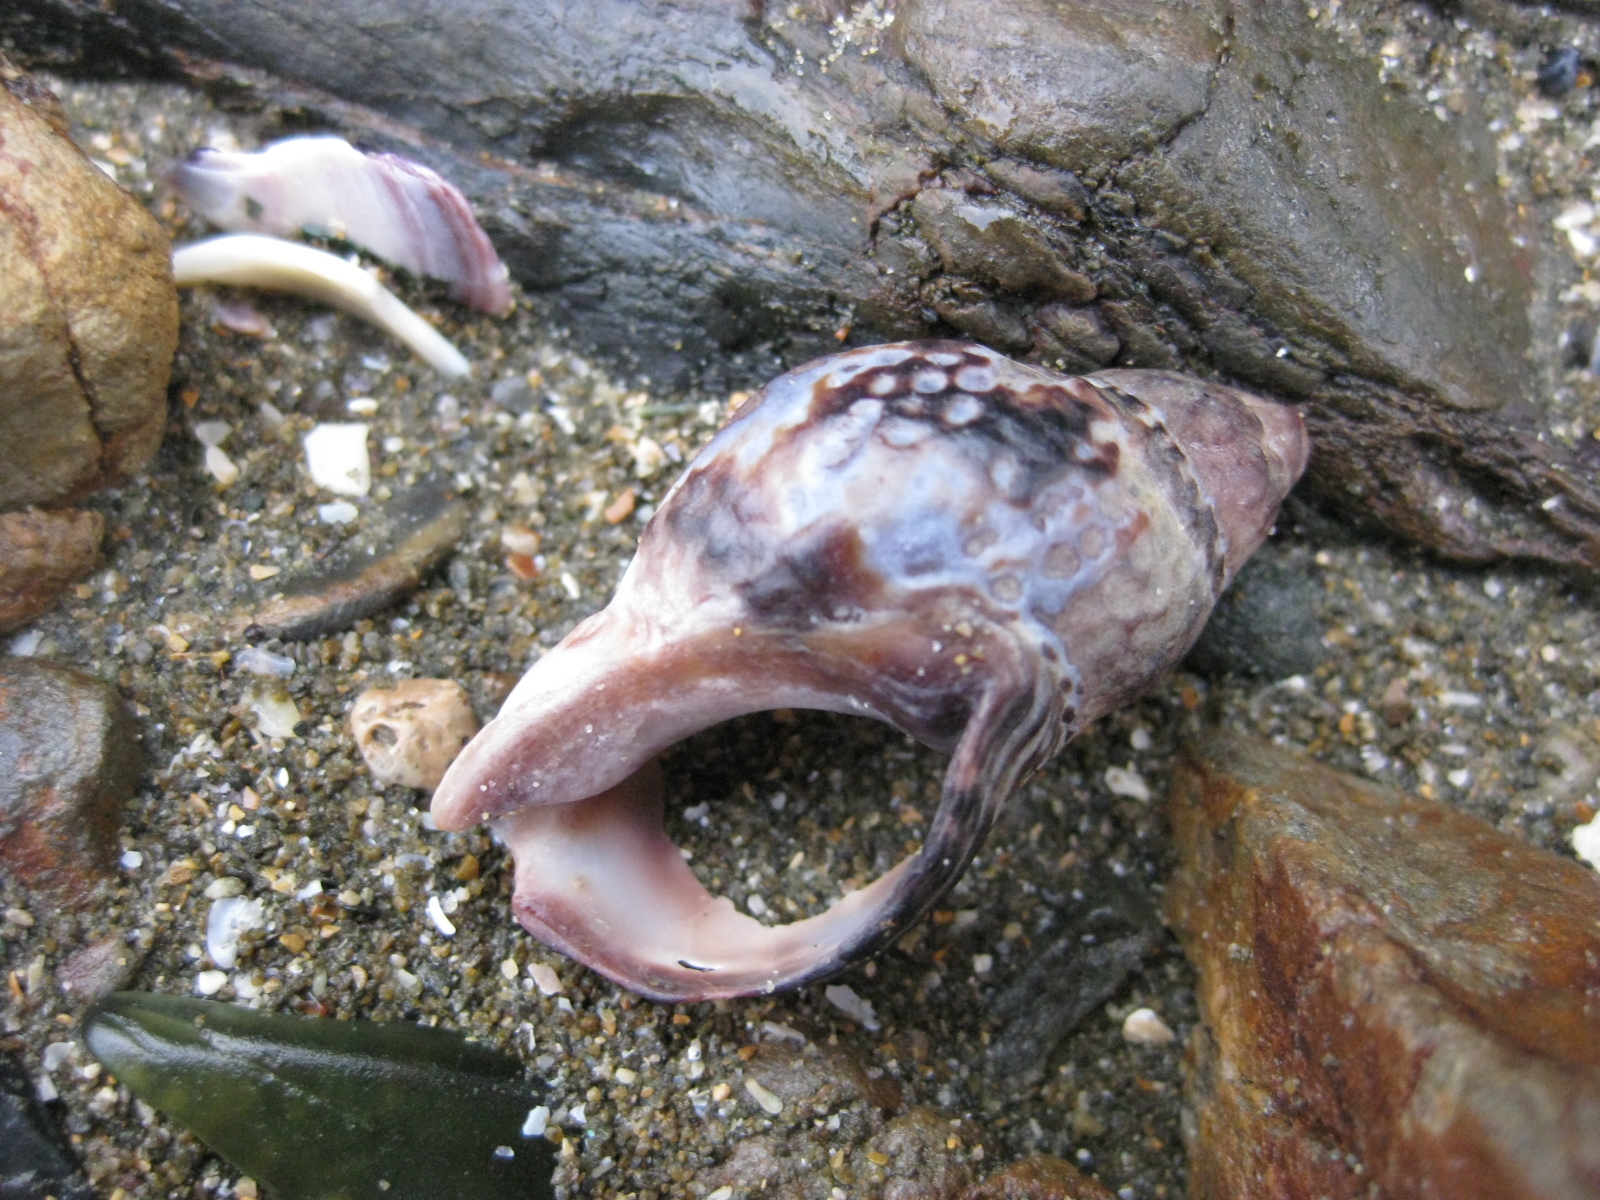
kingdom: Animalia
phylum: Mollusca
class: Gastropoda
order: Neogastropoda
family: Cominellidae
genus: Cominella
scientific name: Cominella maculosa
